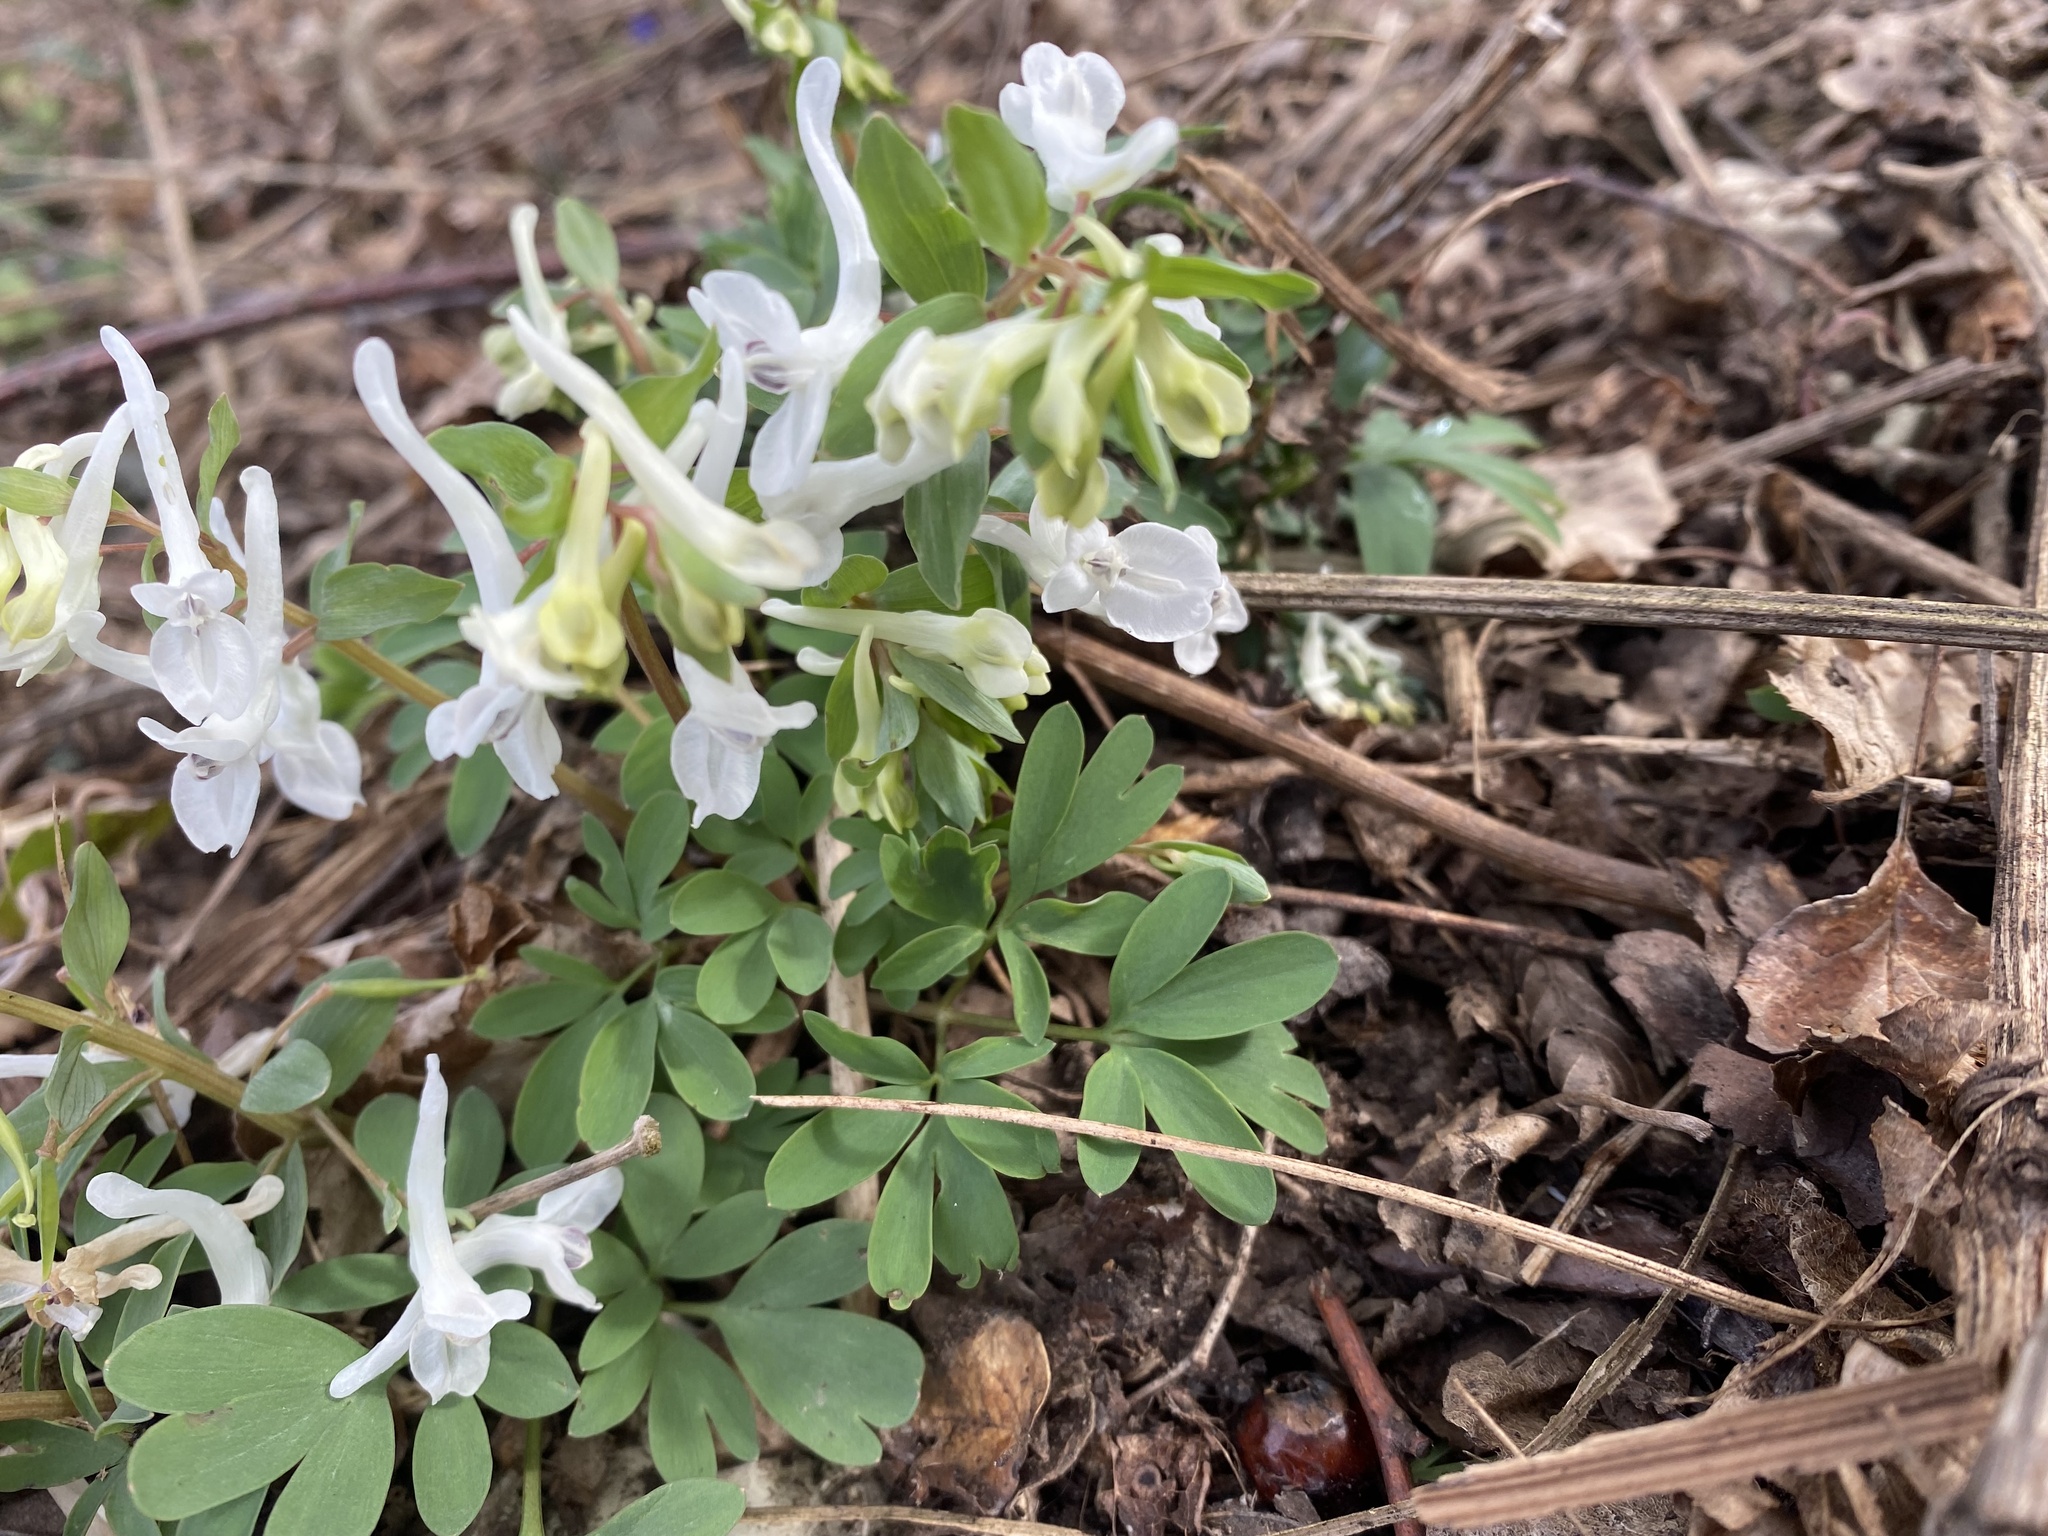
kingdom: Plantae
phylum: Tracheophyta
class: Magnoliopsida
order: Ranunculales
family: Papaveraceae
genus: Corydalis
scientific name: Corydalis caucasica
